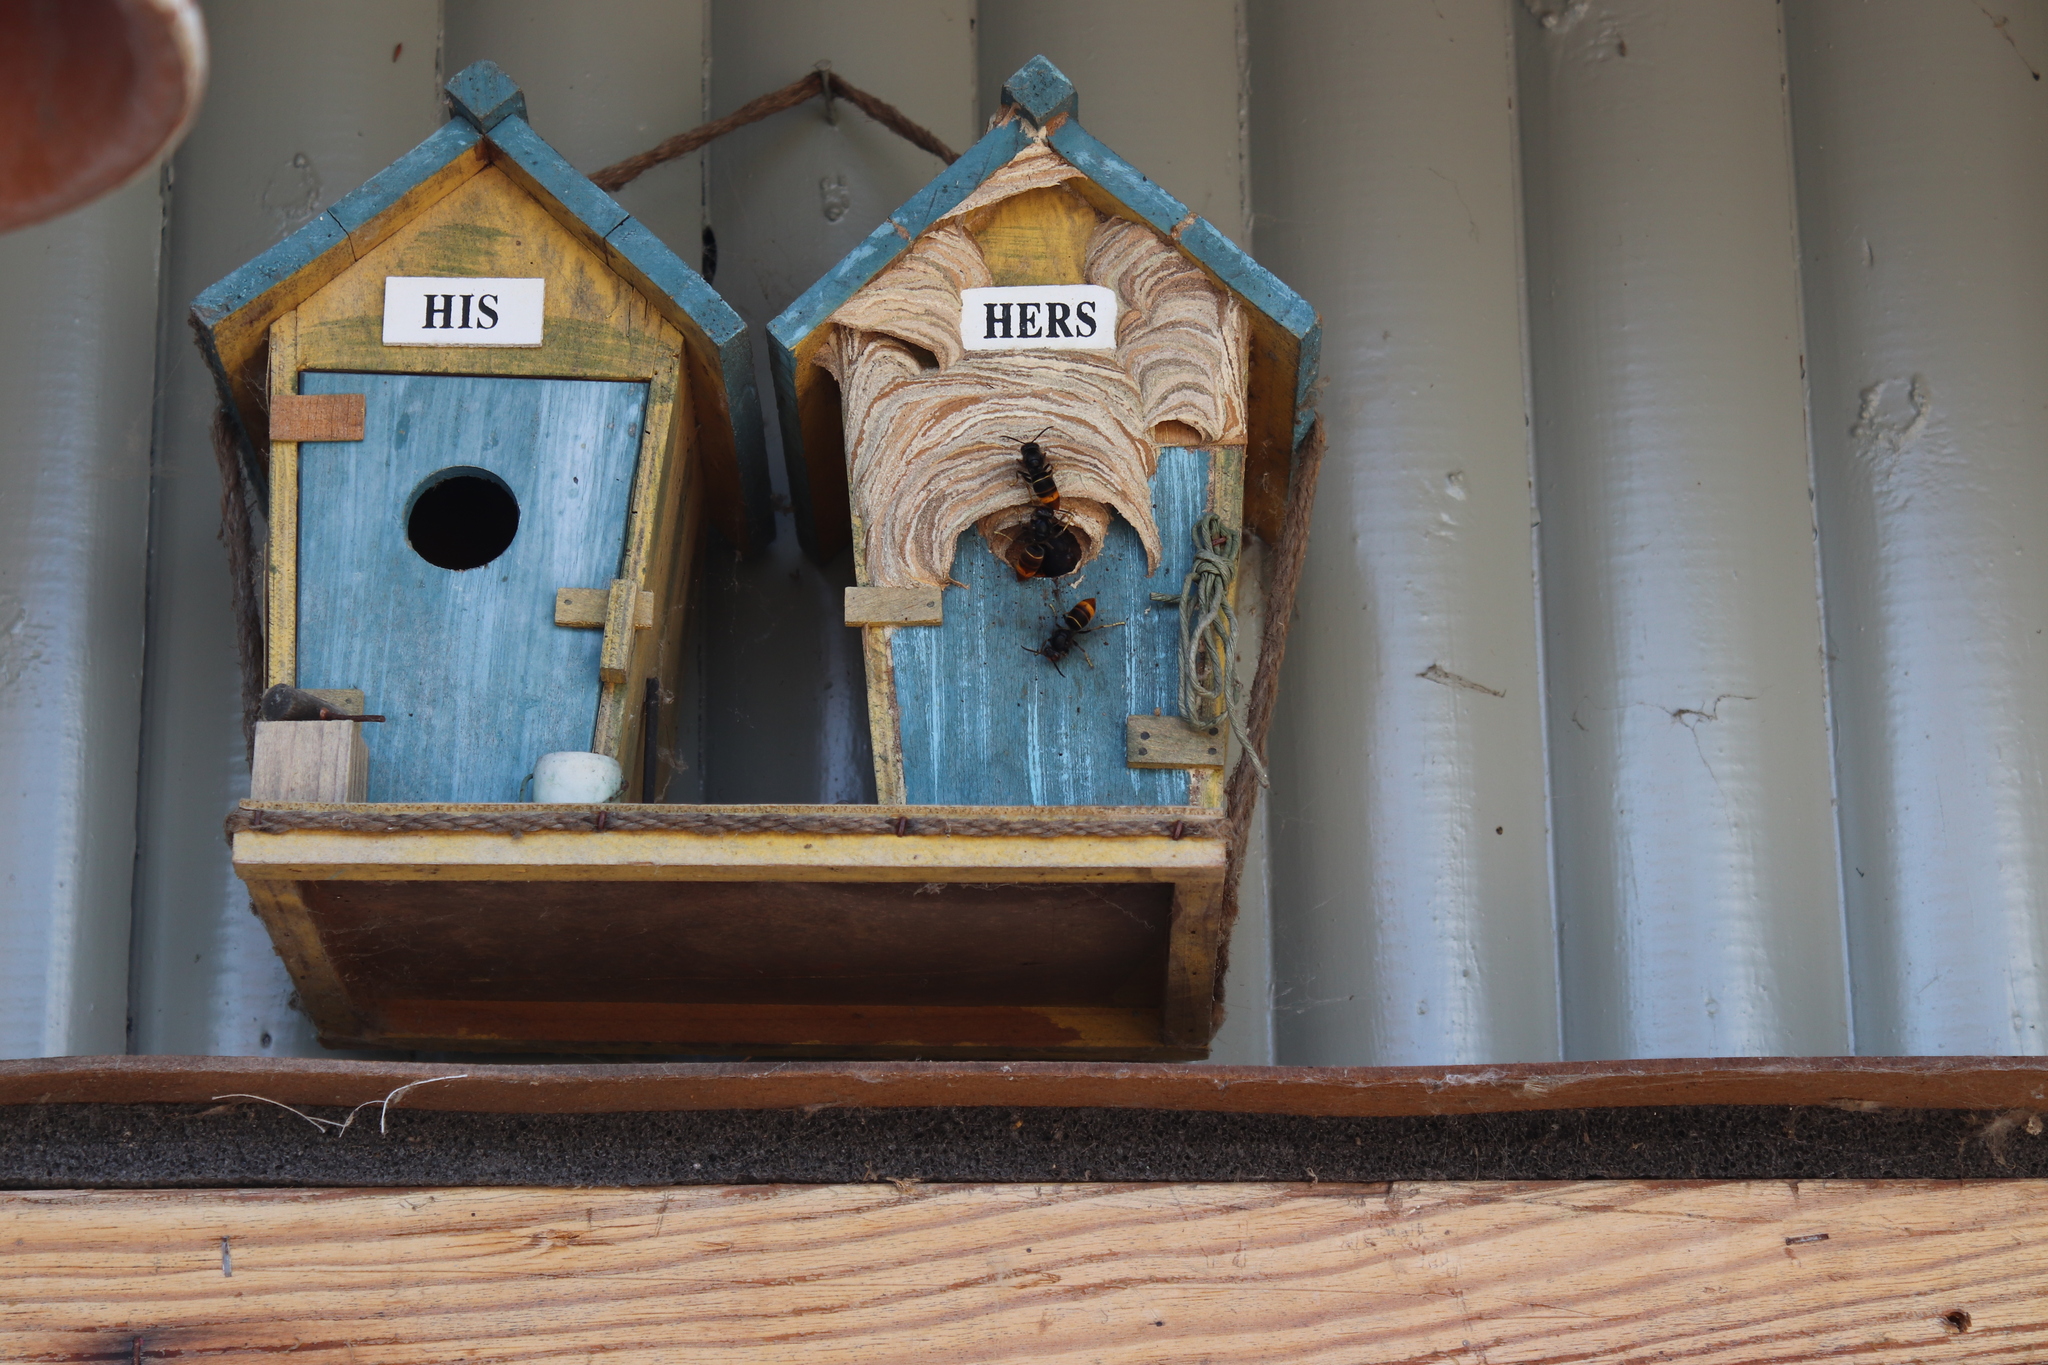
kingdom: Animalia
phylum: Arthropoda
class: Insecta
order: Hymenoptera
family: Vespidae
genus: Vespa
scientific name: Vespa velutina
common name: Asian hornet
